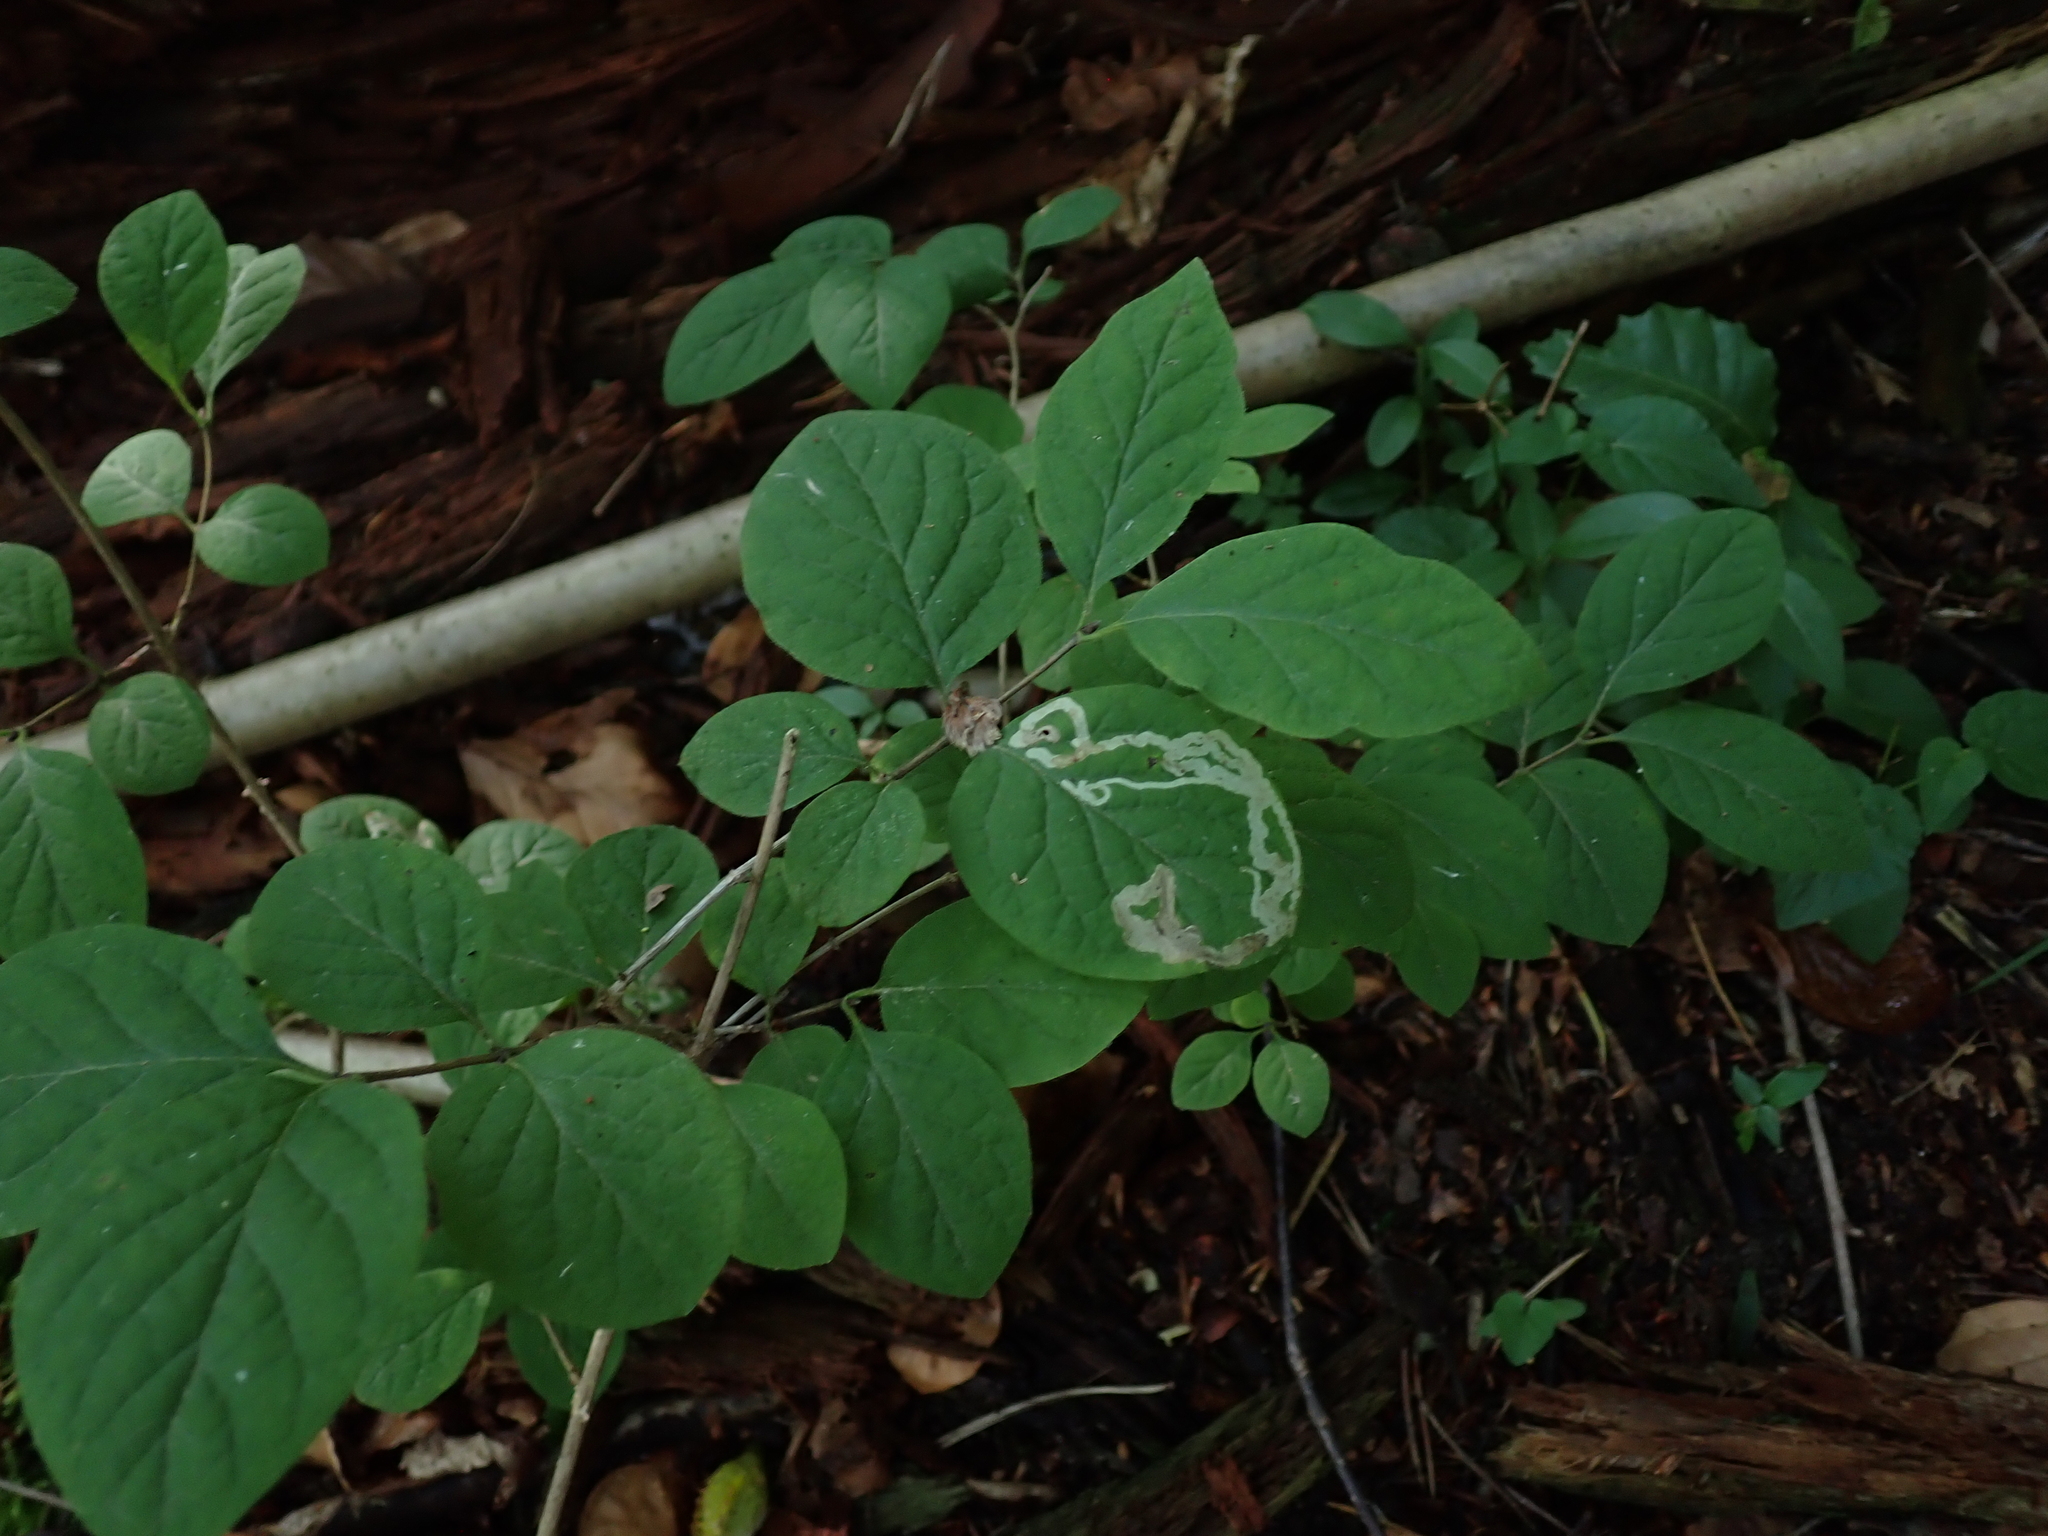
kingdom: Plantae
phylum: Tracheophyta
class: Magnoliopsida
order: Dipsacales
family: Caprifoliaceae
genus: Lonicera
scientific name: Lonicera xylosteum
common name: Fly honeysuckle
